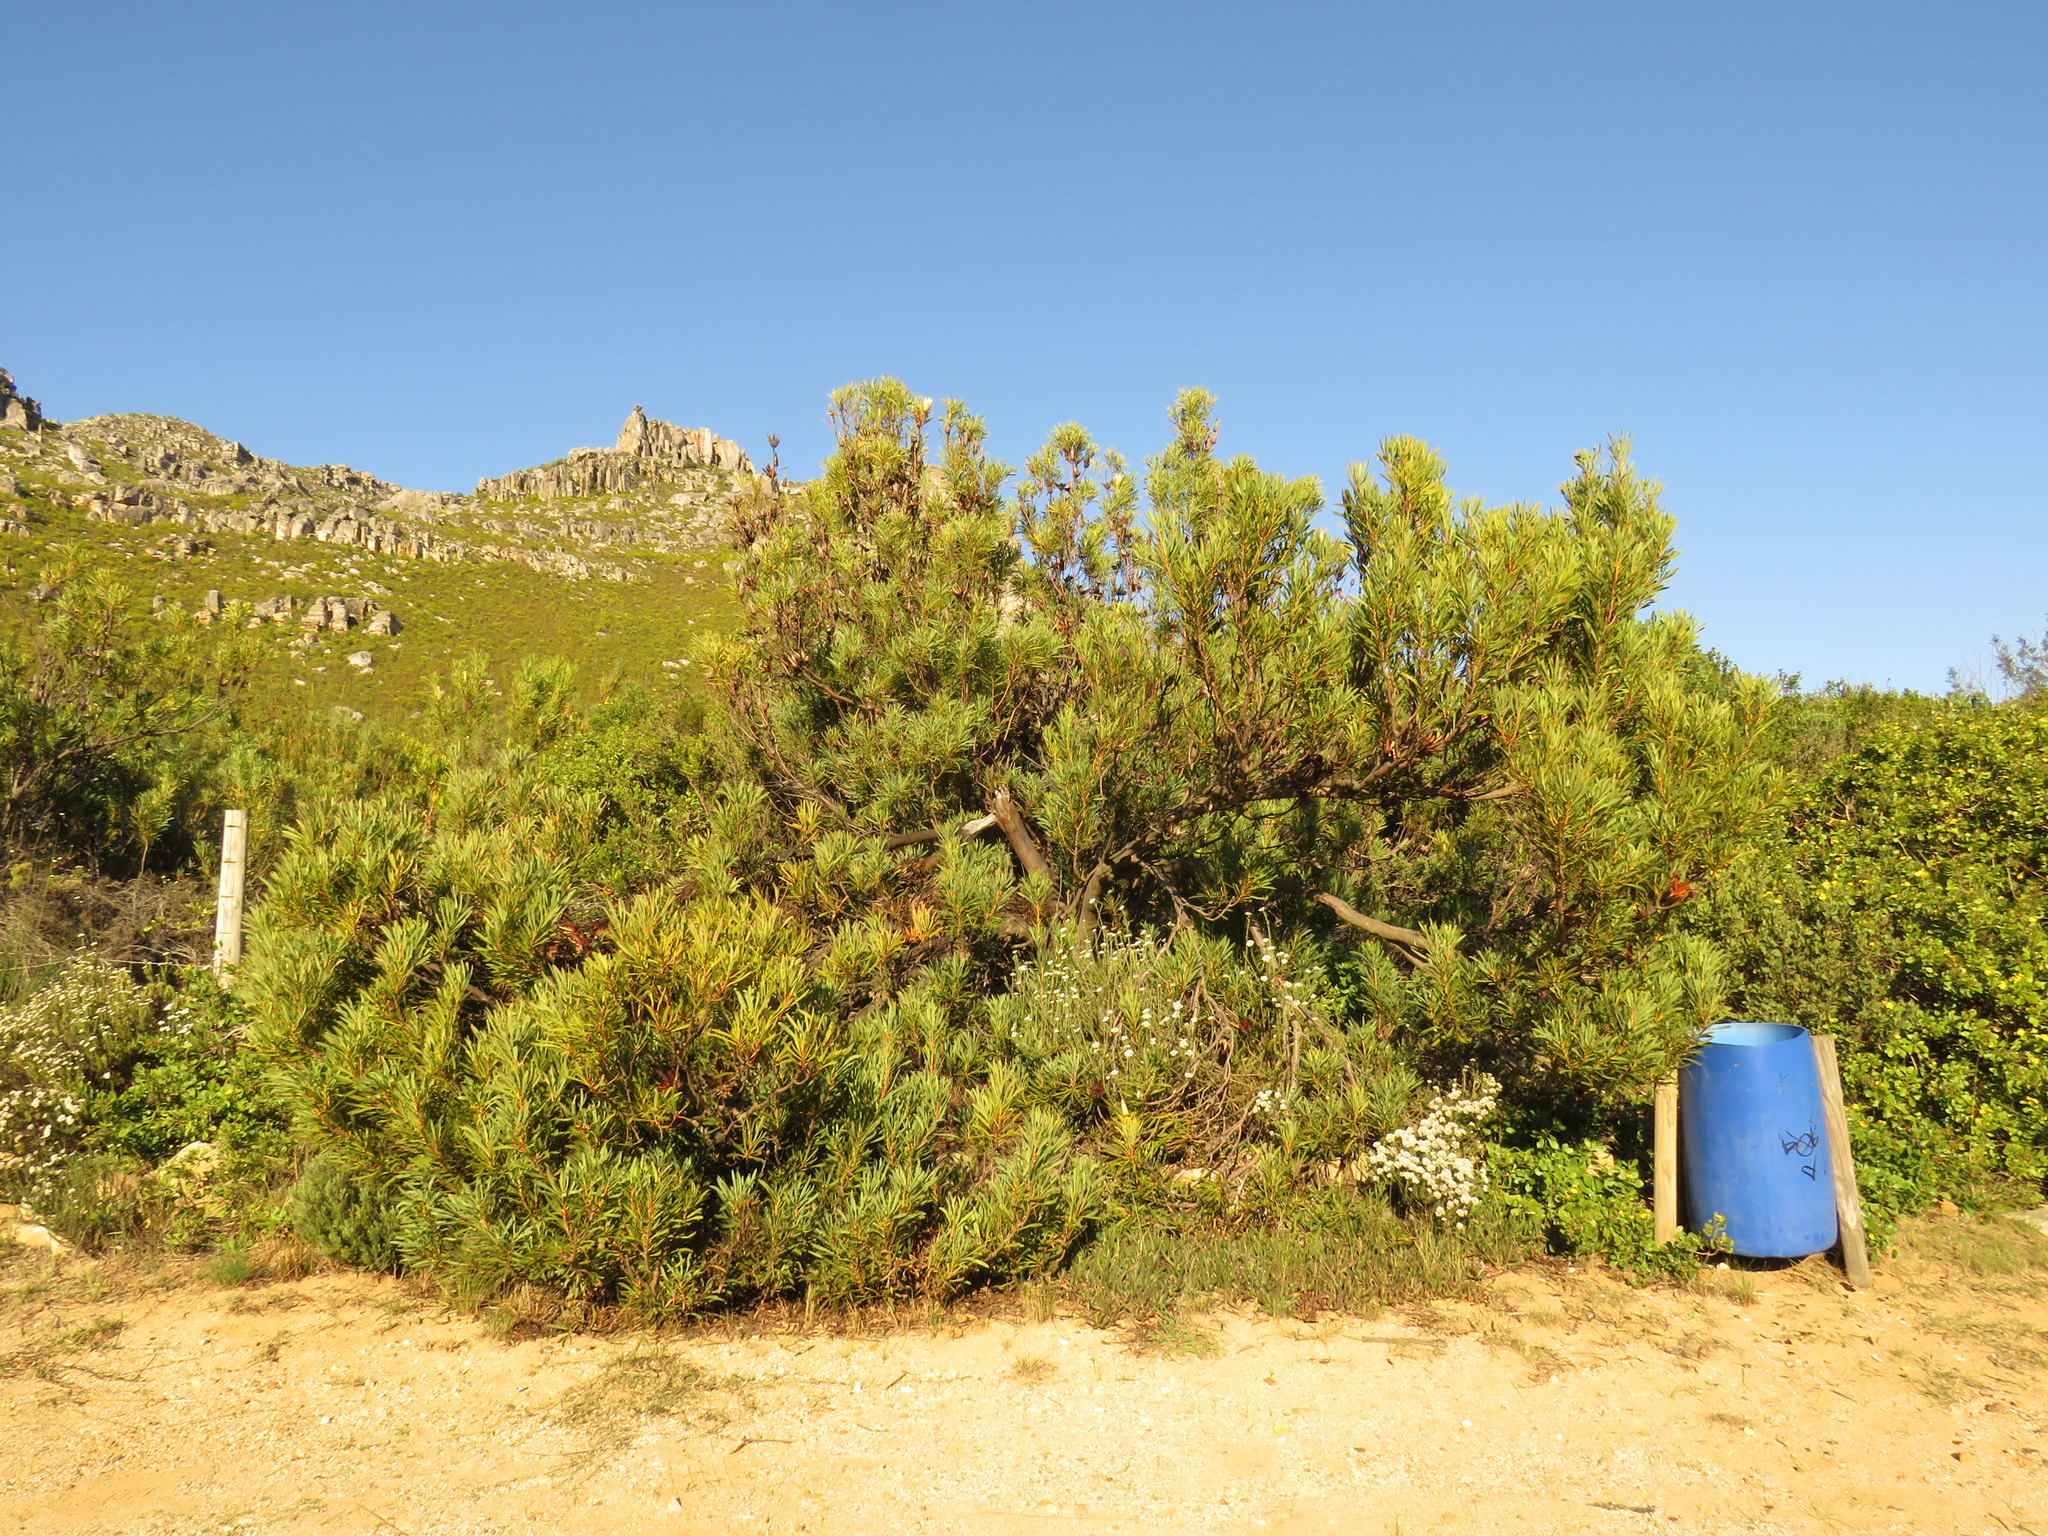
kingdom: Plantae
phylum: Tracheophyta
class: Magnoliopsida
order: Proteales
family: Proteaceae
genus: Protea
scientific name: Protea repens
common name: Sugarbush
